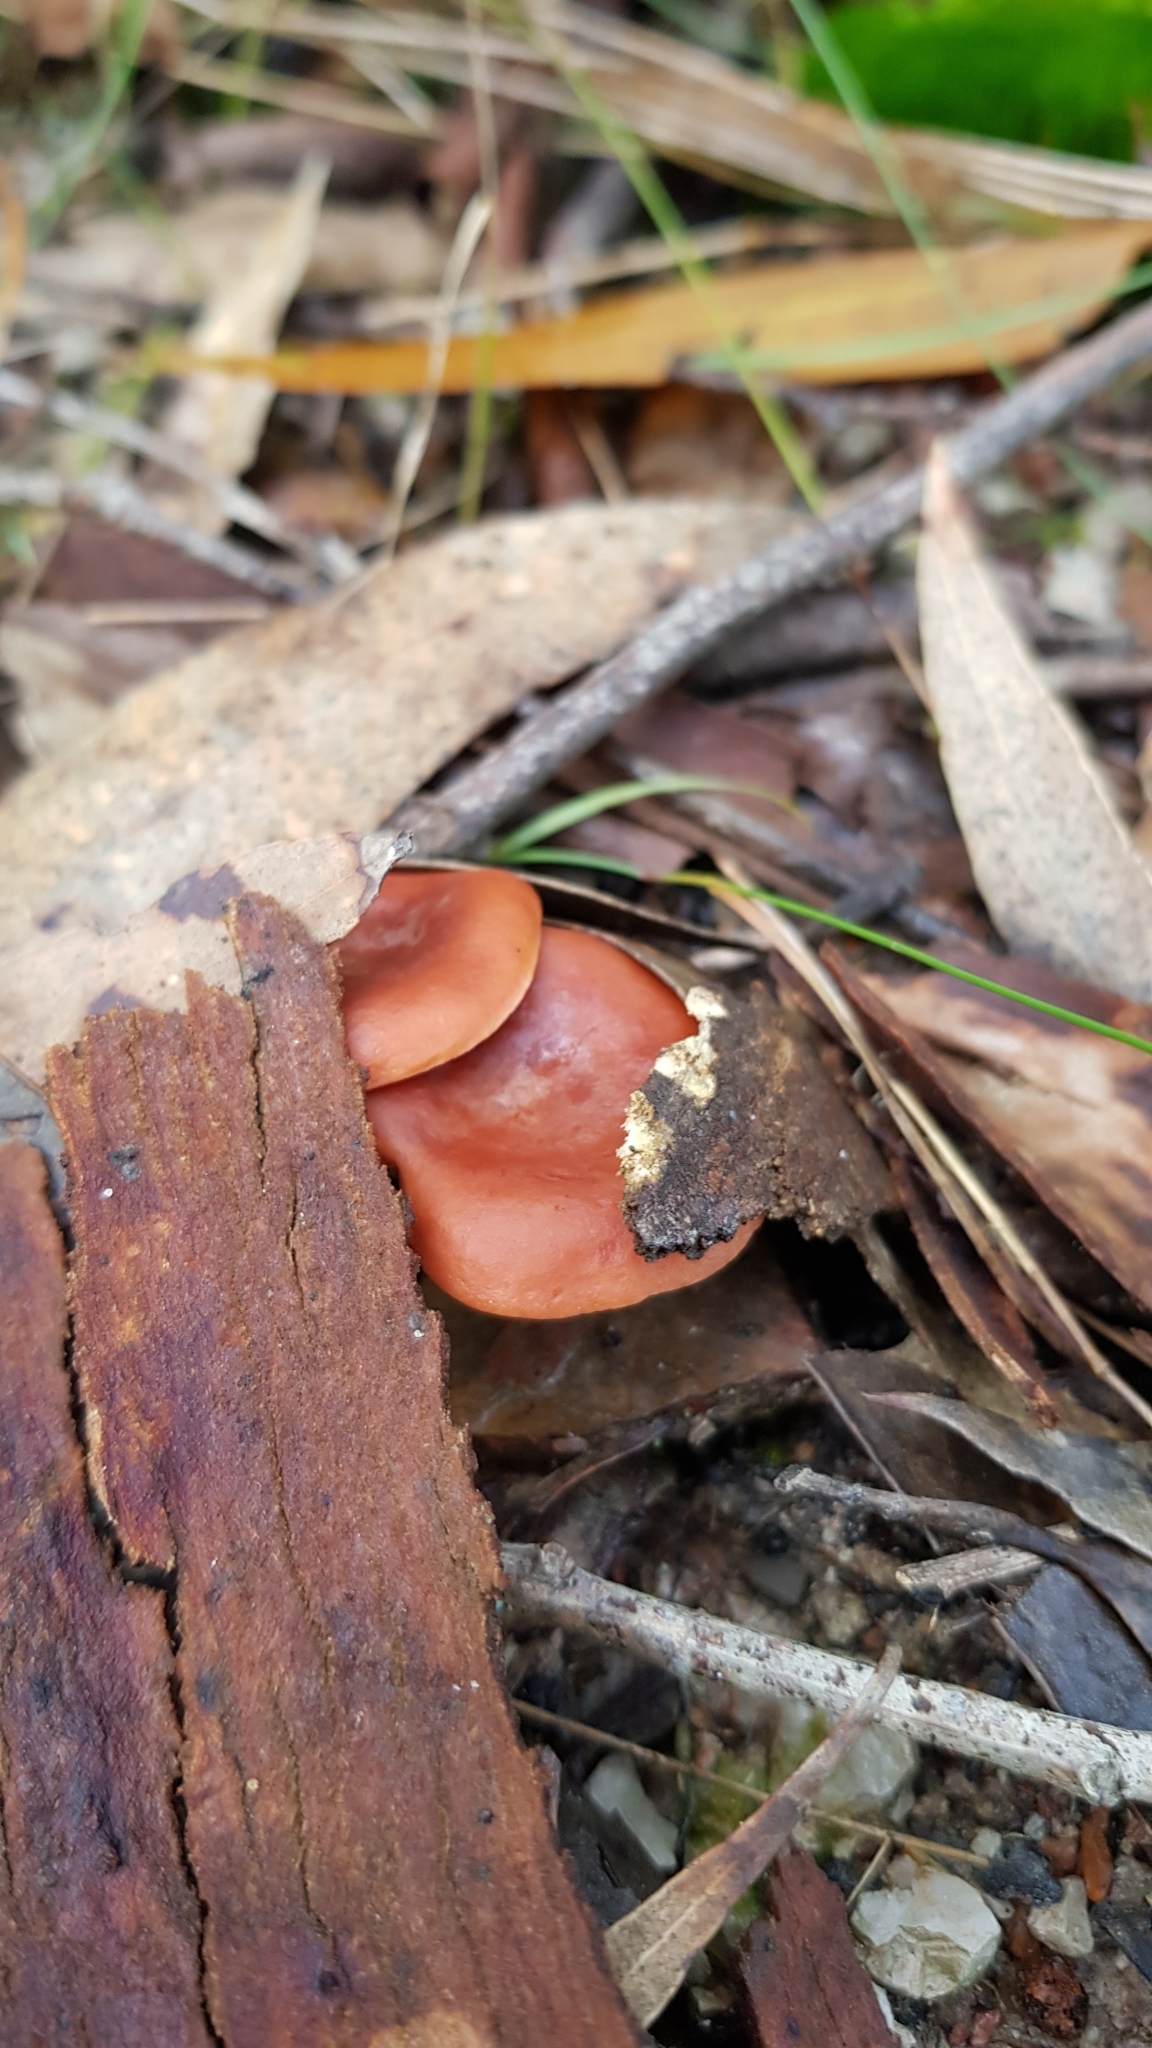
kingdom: Fungi
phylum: Basidiomycota
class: Agaricomycetes
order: Russulales
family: Russulaceae
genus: Lactarius
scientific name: Lactarius eucalypti
